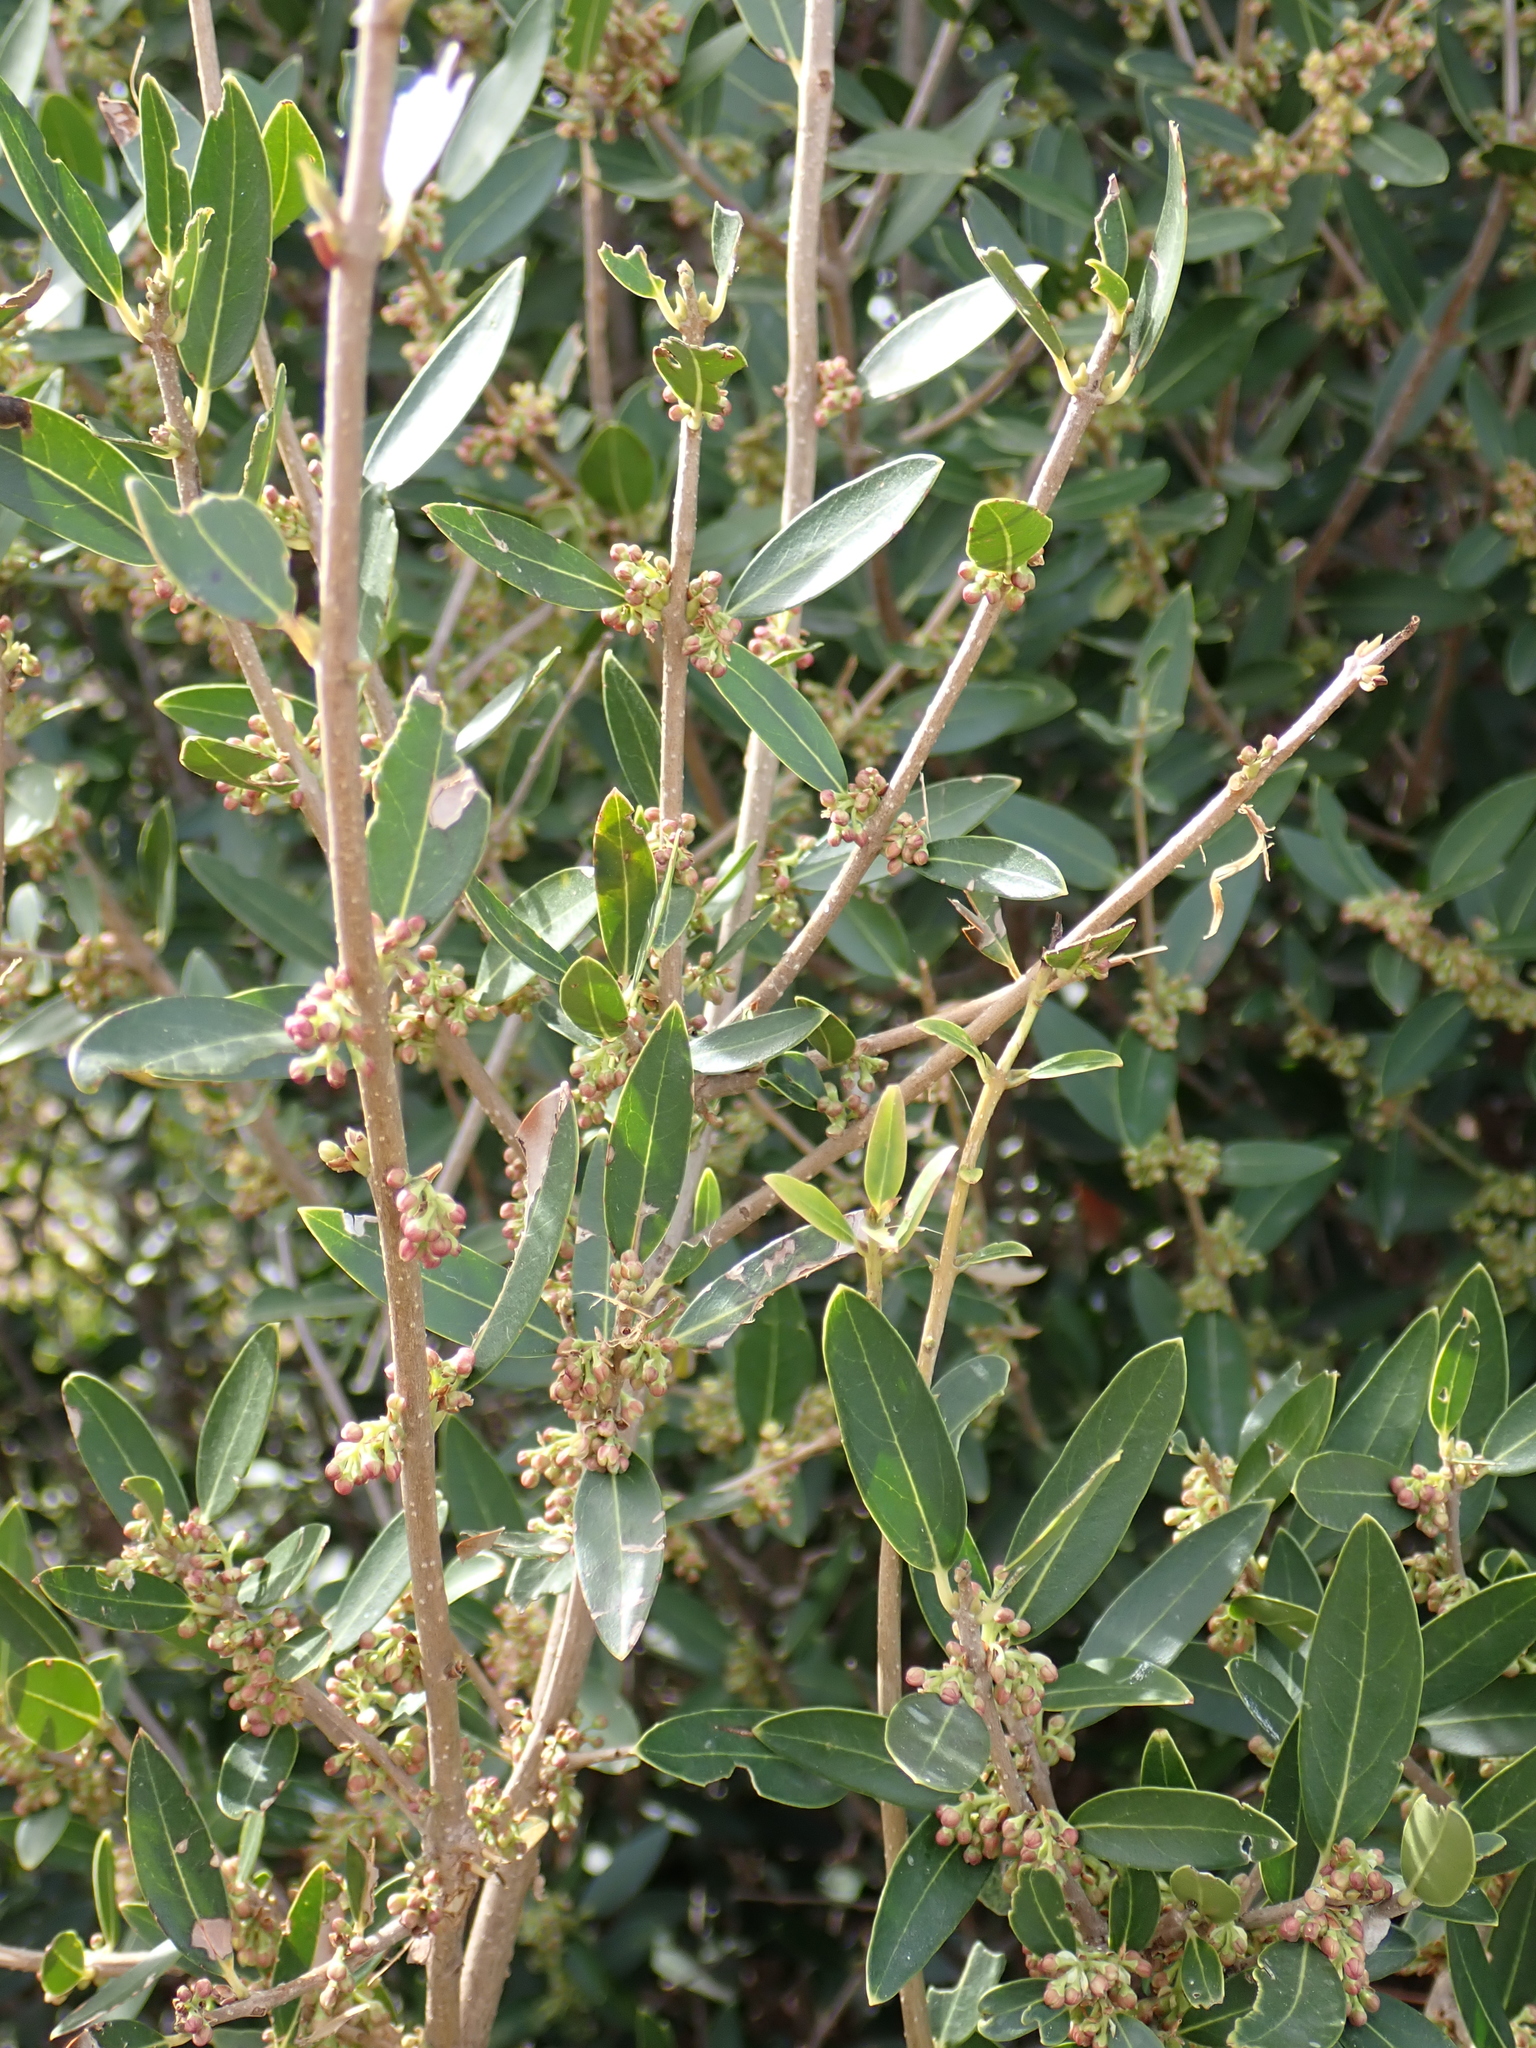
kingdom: Plantae
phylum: Tracheophyta
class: Magnoliopsida
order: Lamiales
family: Oleaceae
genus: Phillyrea
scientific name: Phillyrea angustifolia
